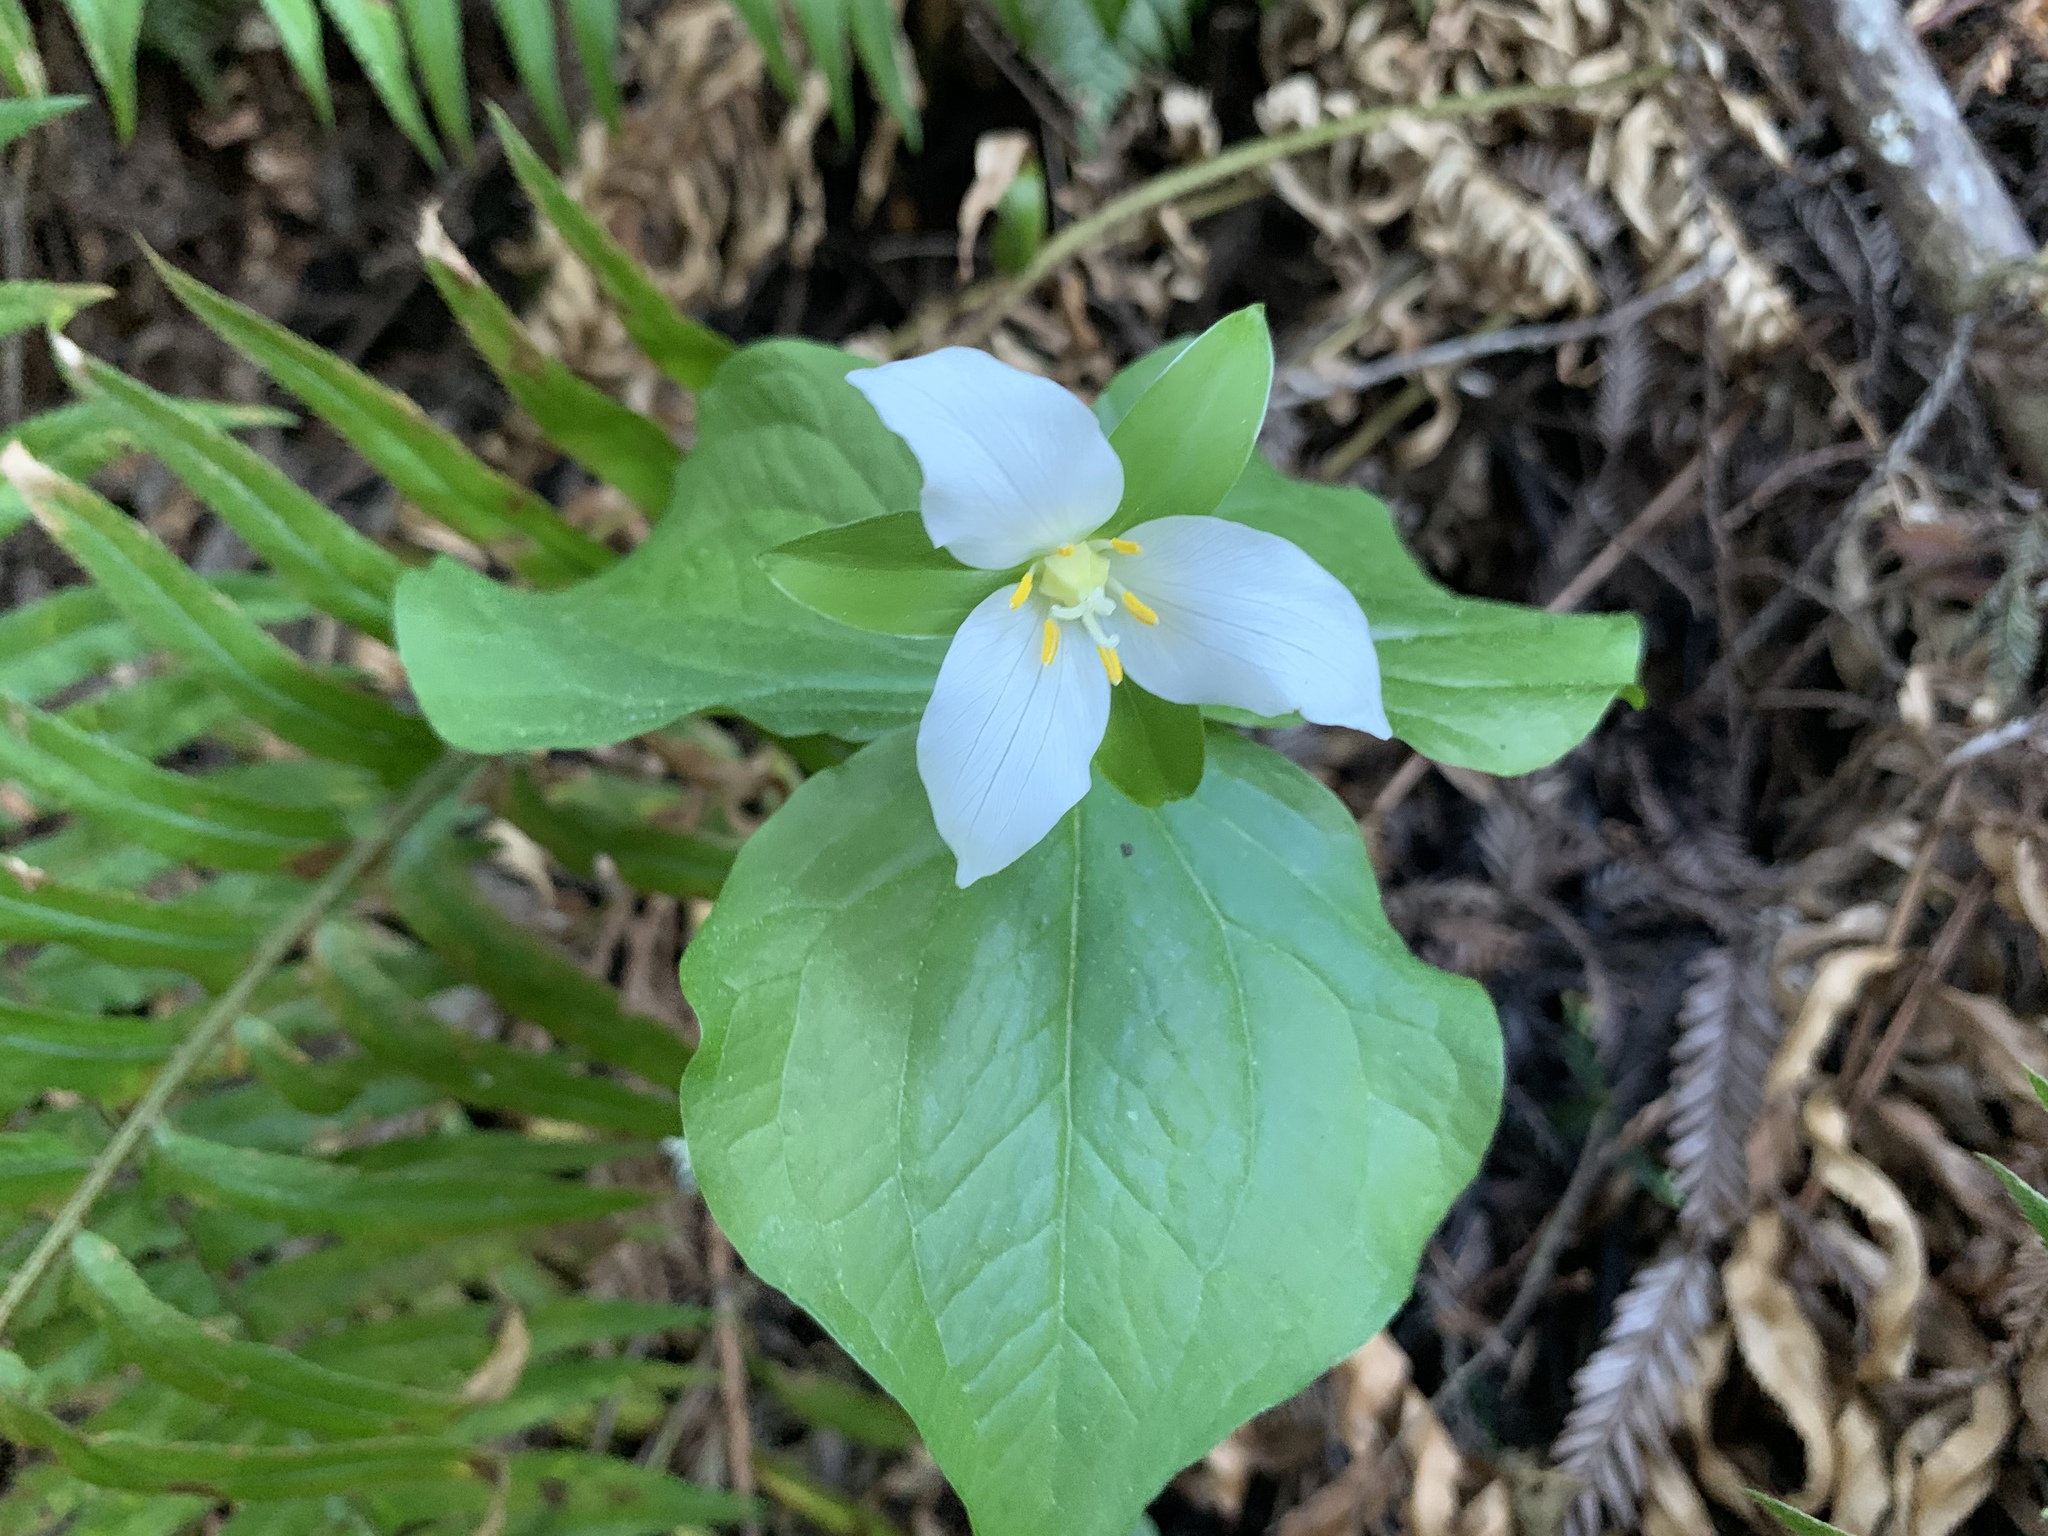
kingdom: Plantae
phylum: Tracheophyta
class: Liliopsida
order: Liliales
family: Melanthiaceae
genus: Trillium
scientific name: Trillium ovatum
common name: Pacific trillium
